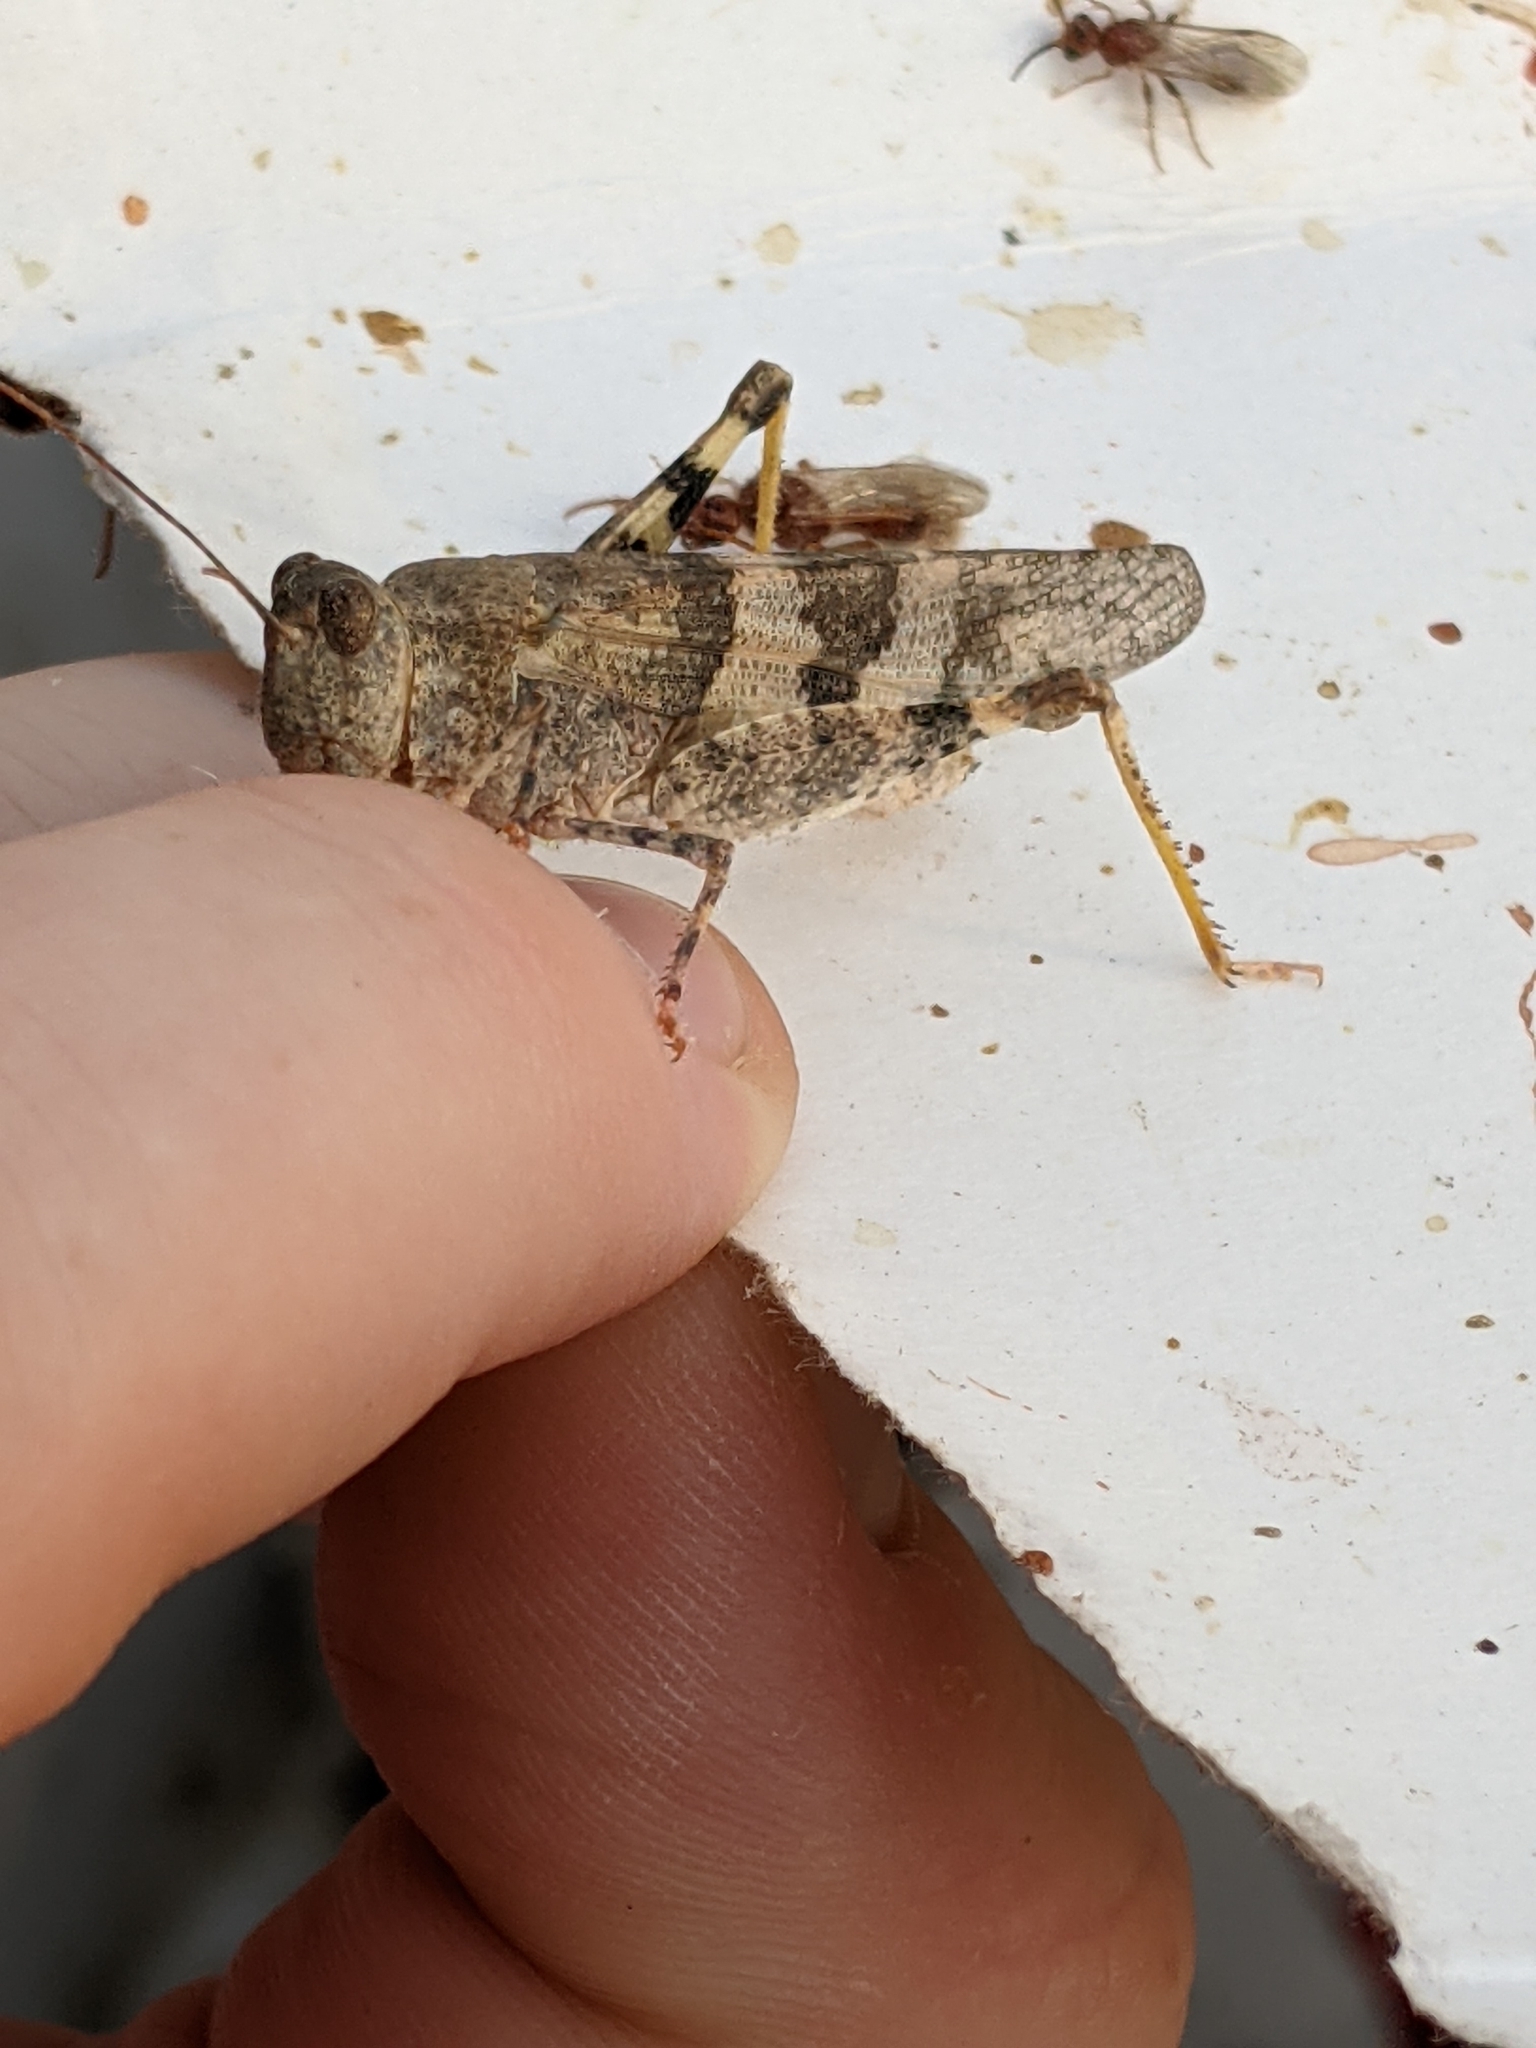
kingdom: Animalia
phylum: Arthropoda
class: Insecta
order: Orthoptera
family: Acrididae
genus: Trimerotropis
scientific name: Trimerotropis pallidipennis
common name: Pallid-winged grasshopper
